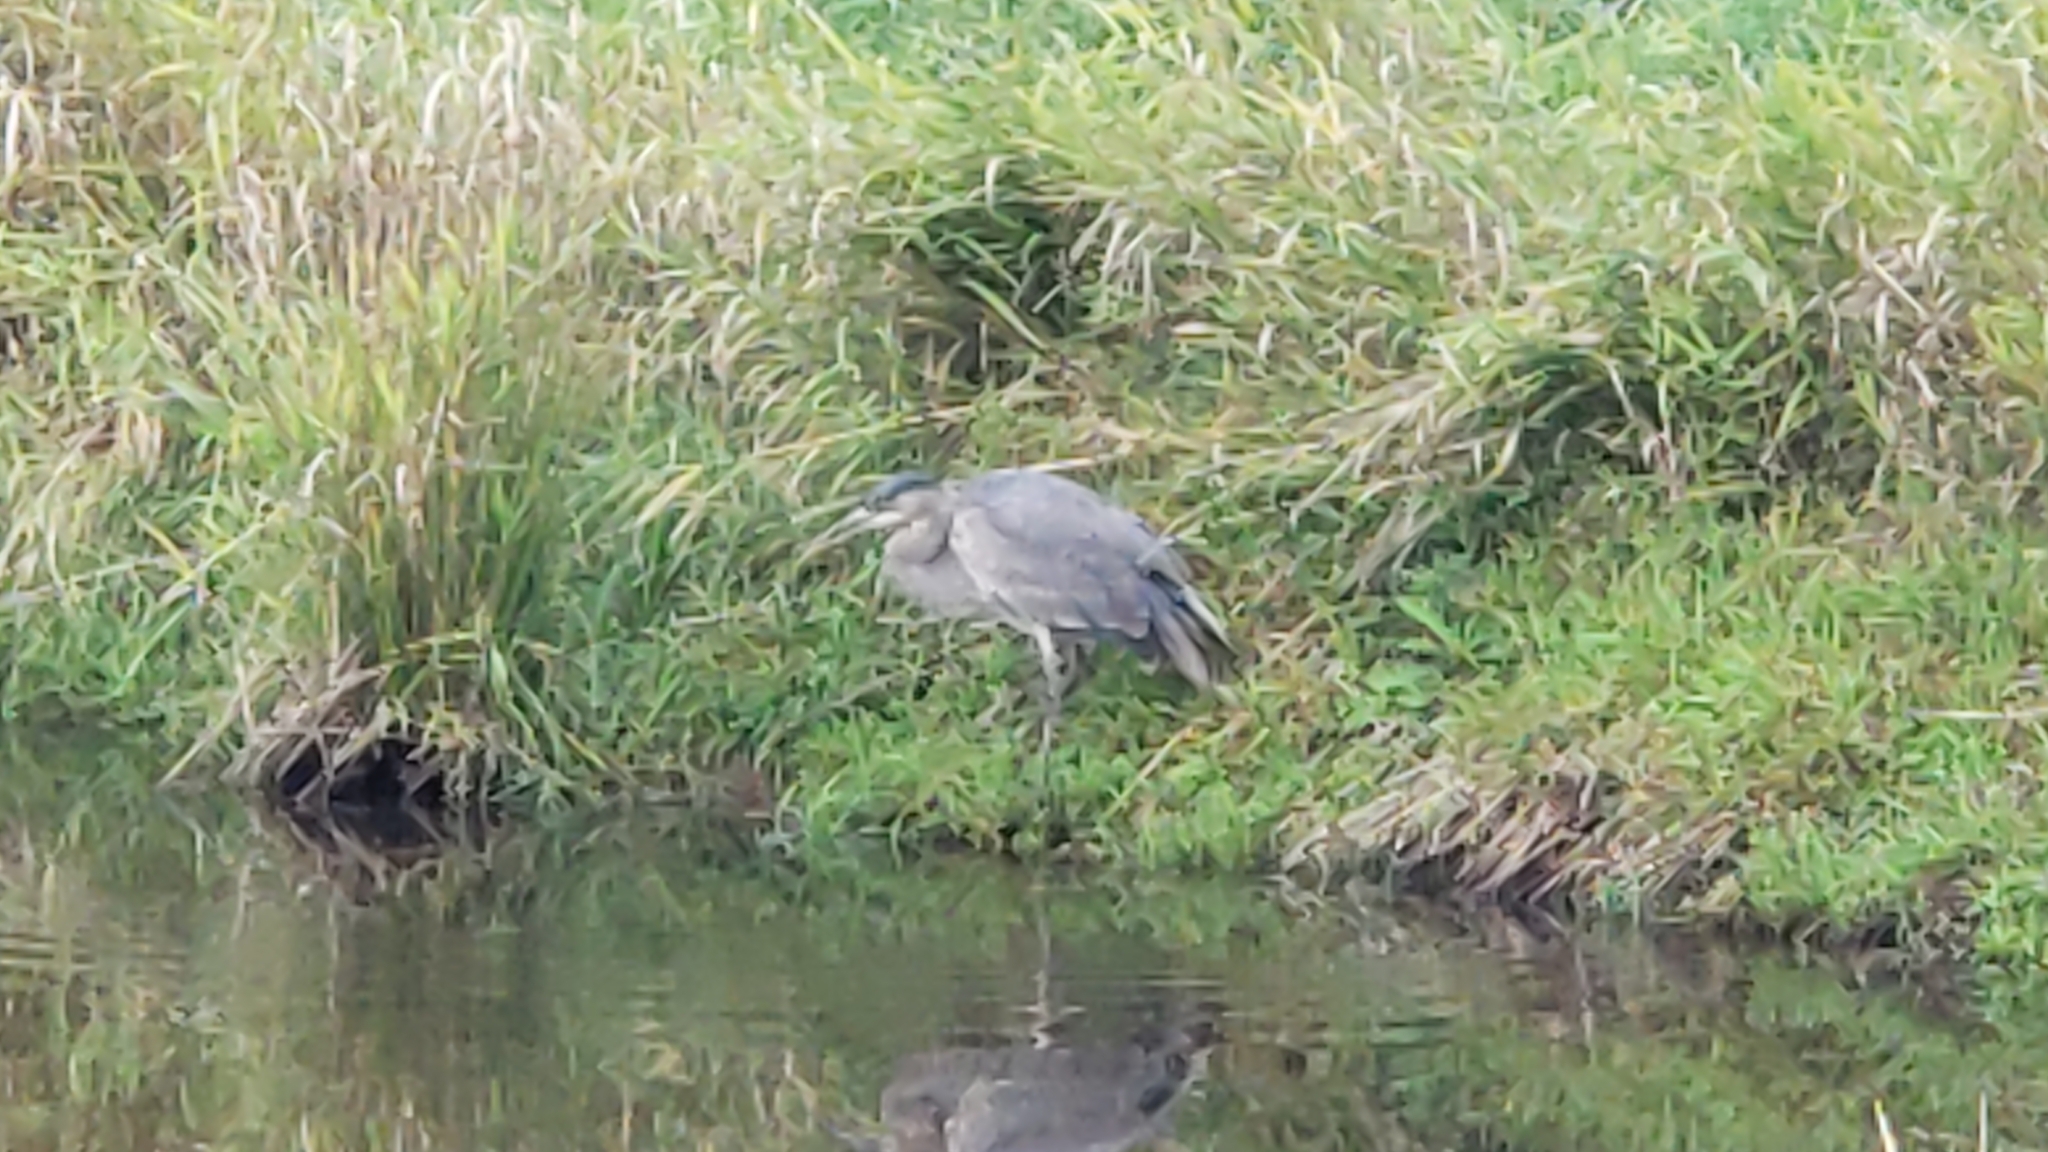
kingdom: Animalia
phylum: Chordata
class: Aves
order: Pelecaniformes
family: Ardeidae
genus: Ardea
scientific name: Ardea herodias
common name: Great blue heron
